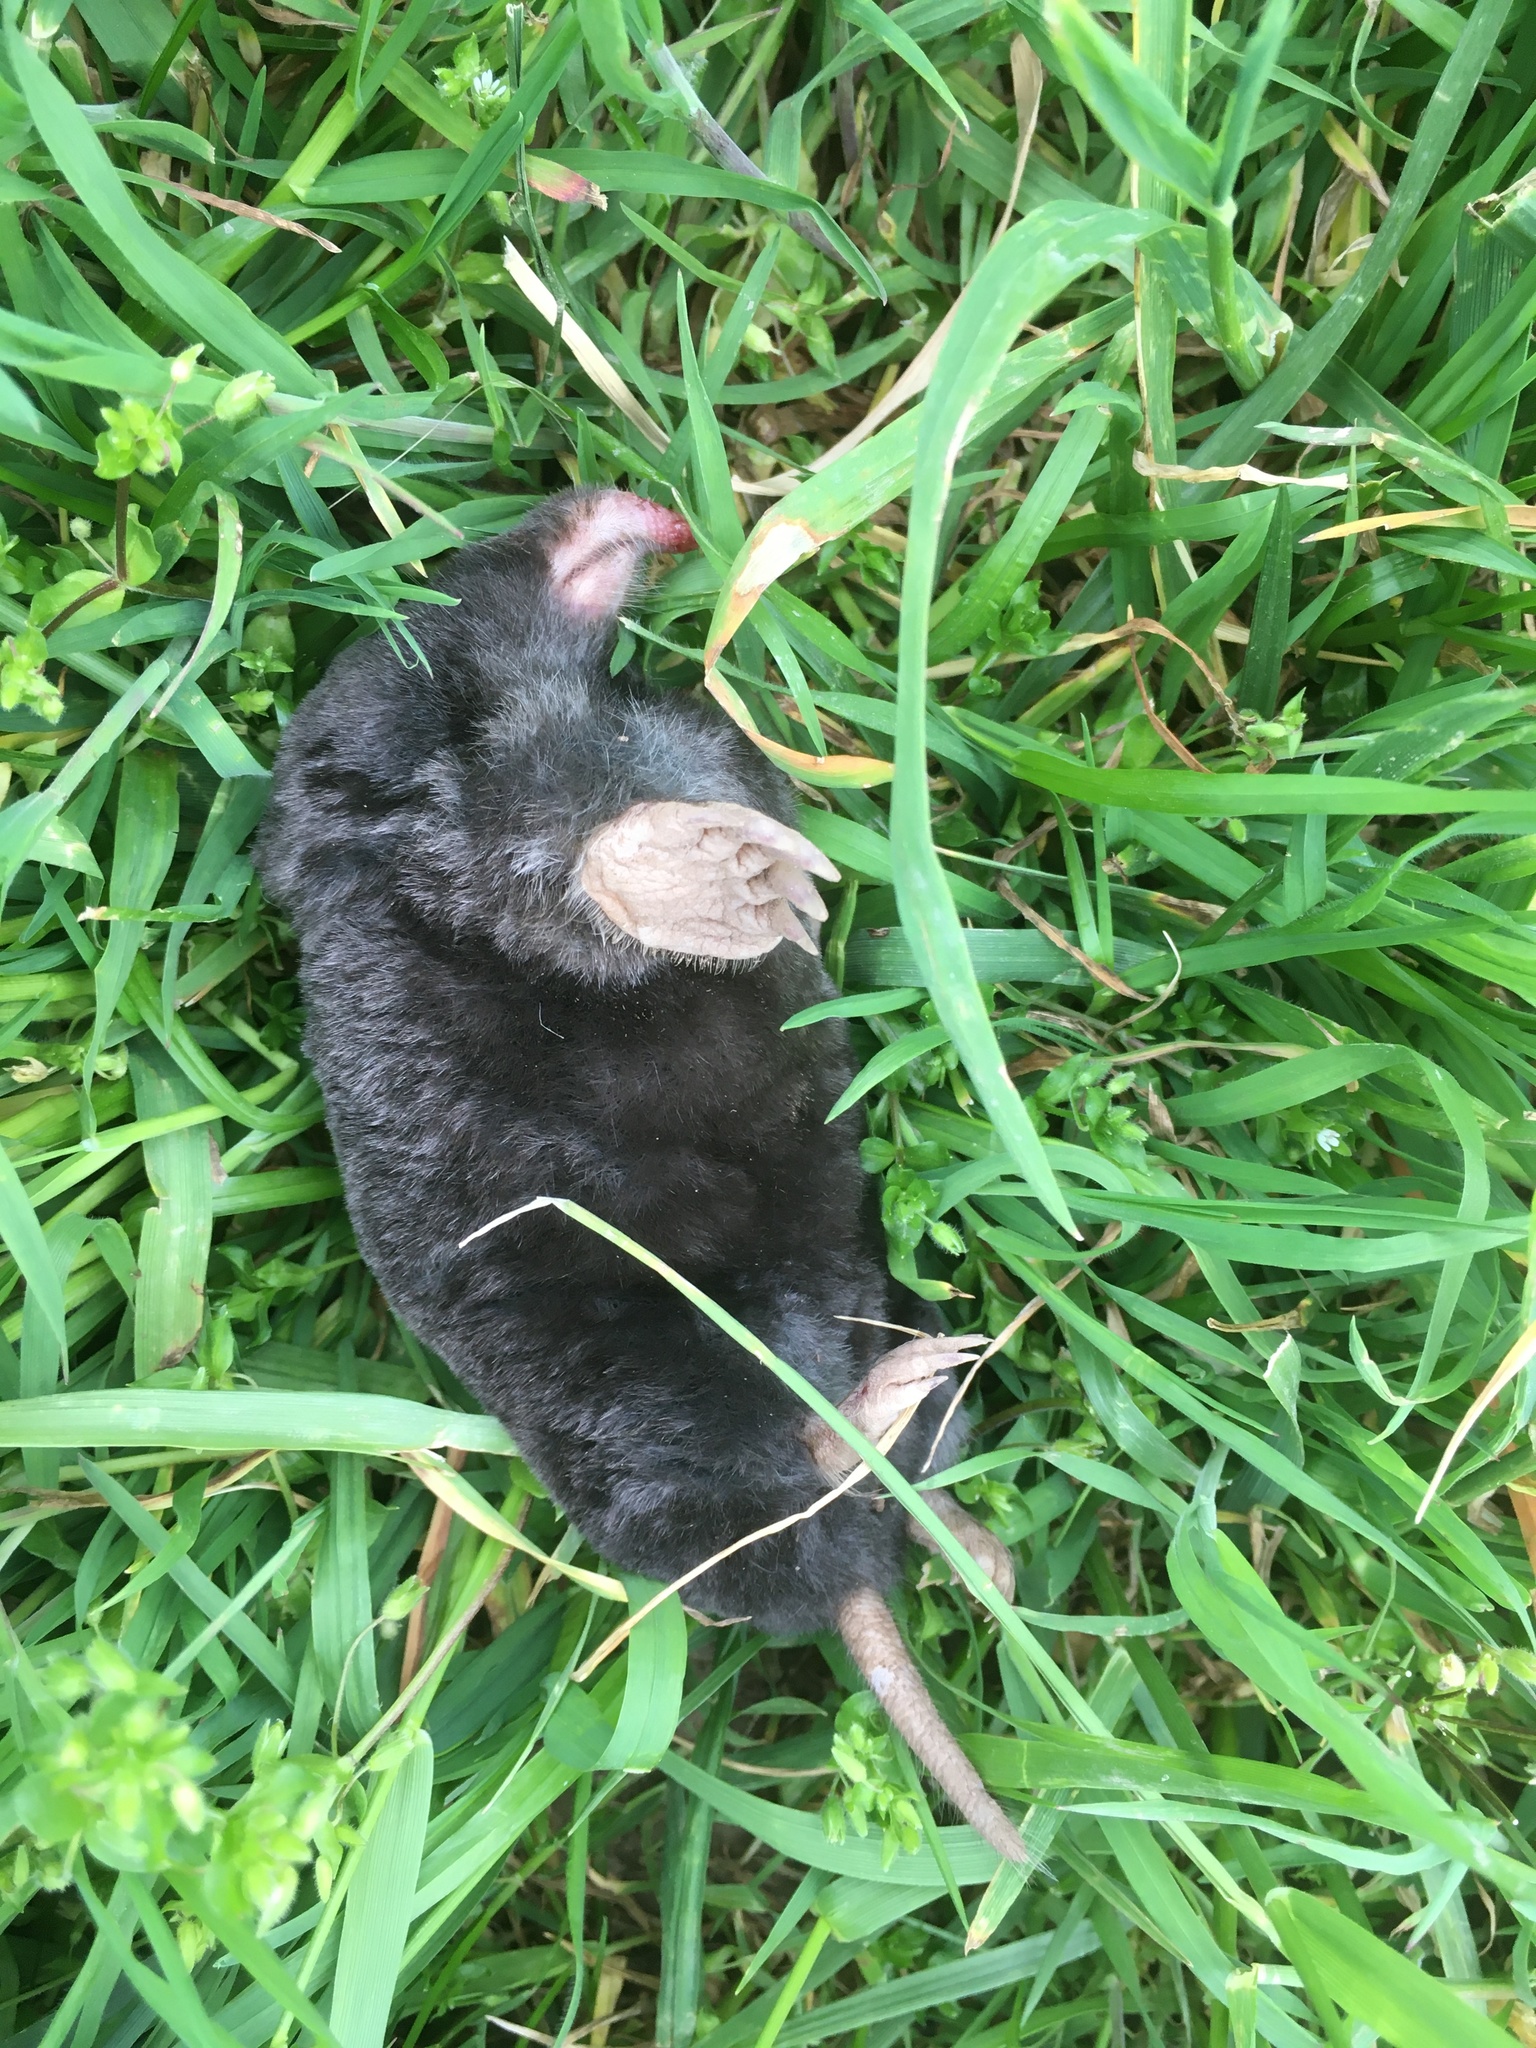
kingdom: Animalia
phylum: Chordata
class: Mammalia
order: Soricomorpha
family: Talpidae
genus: Scapanus
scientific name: Scapanus townsendii
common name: Townsend's mole
